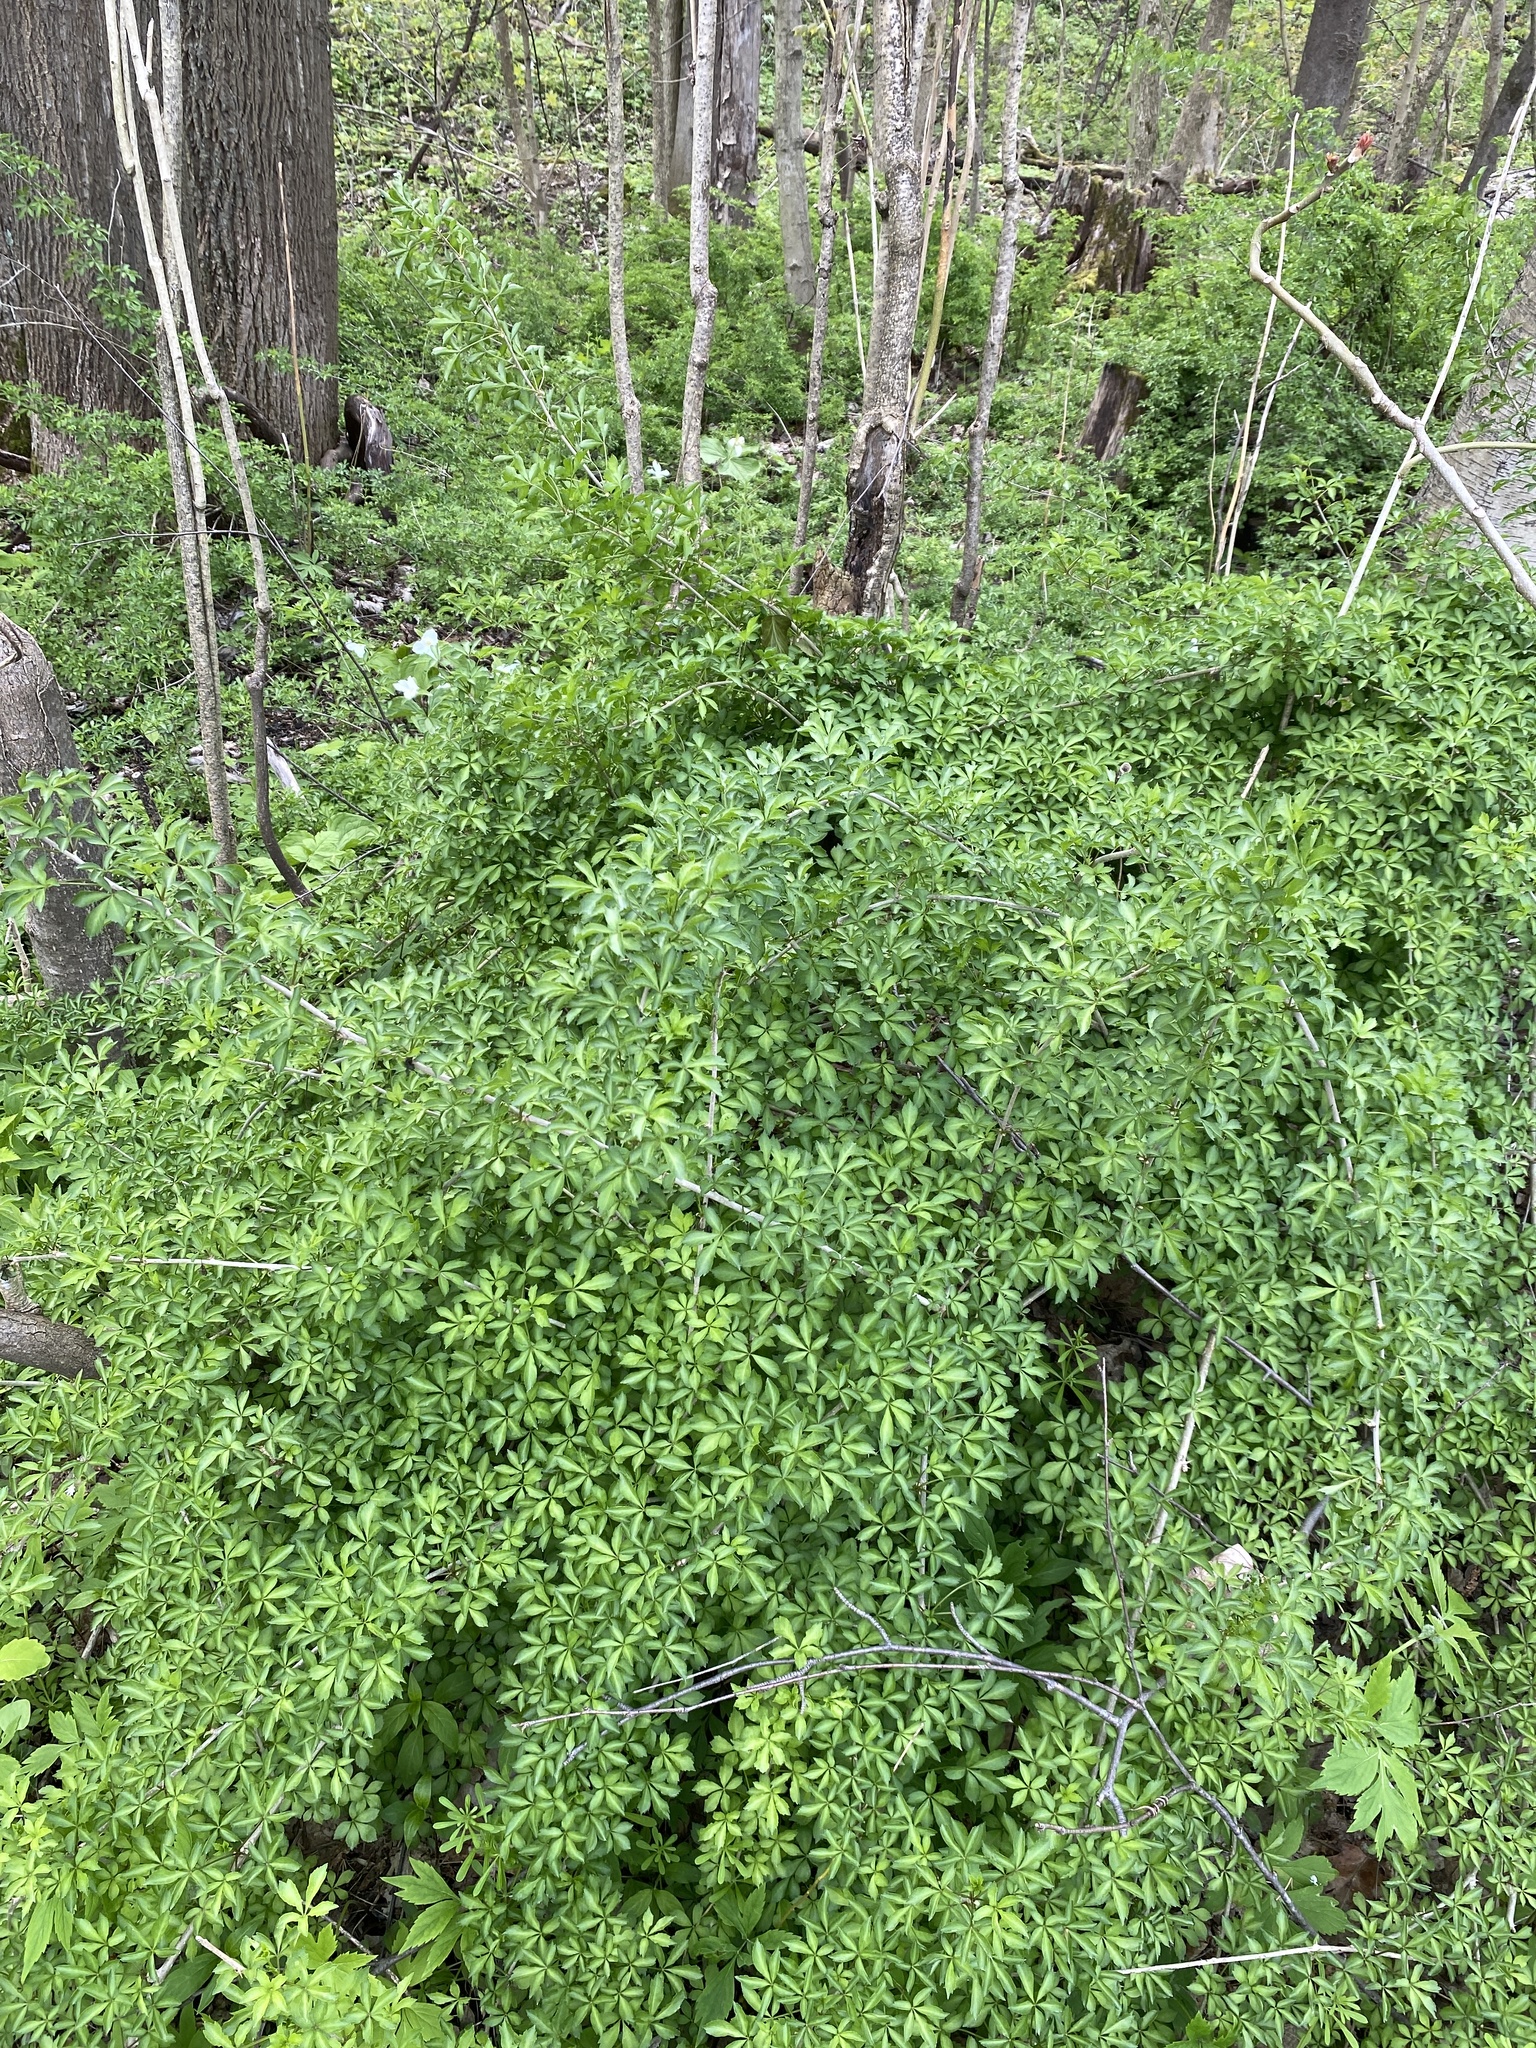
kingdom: Plantae
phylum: Tracheophyta
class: Magnoliopsida
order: Apiales
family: Araliaceae
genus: Eleutherococcus
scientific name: Eleutherococcus sieboldianus
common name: Ginseng
